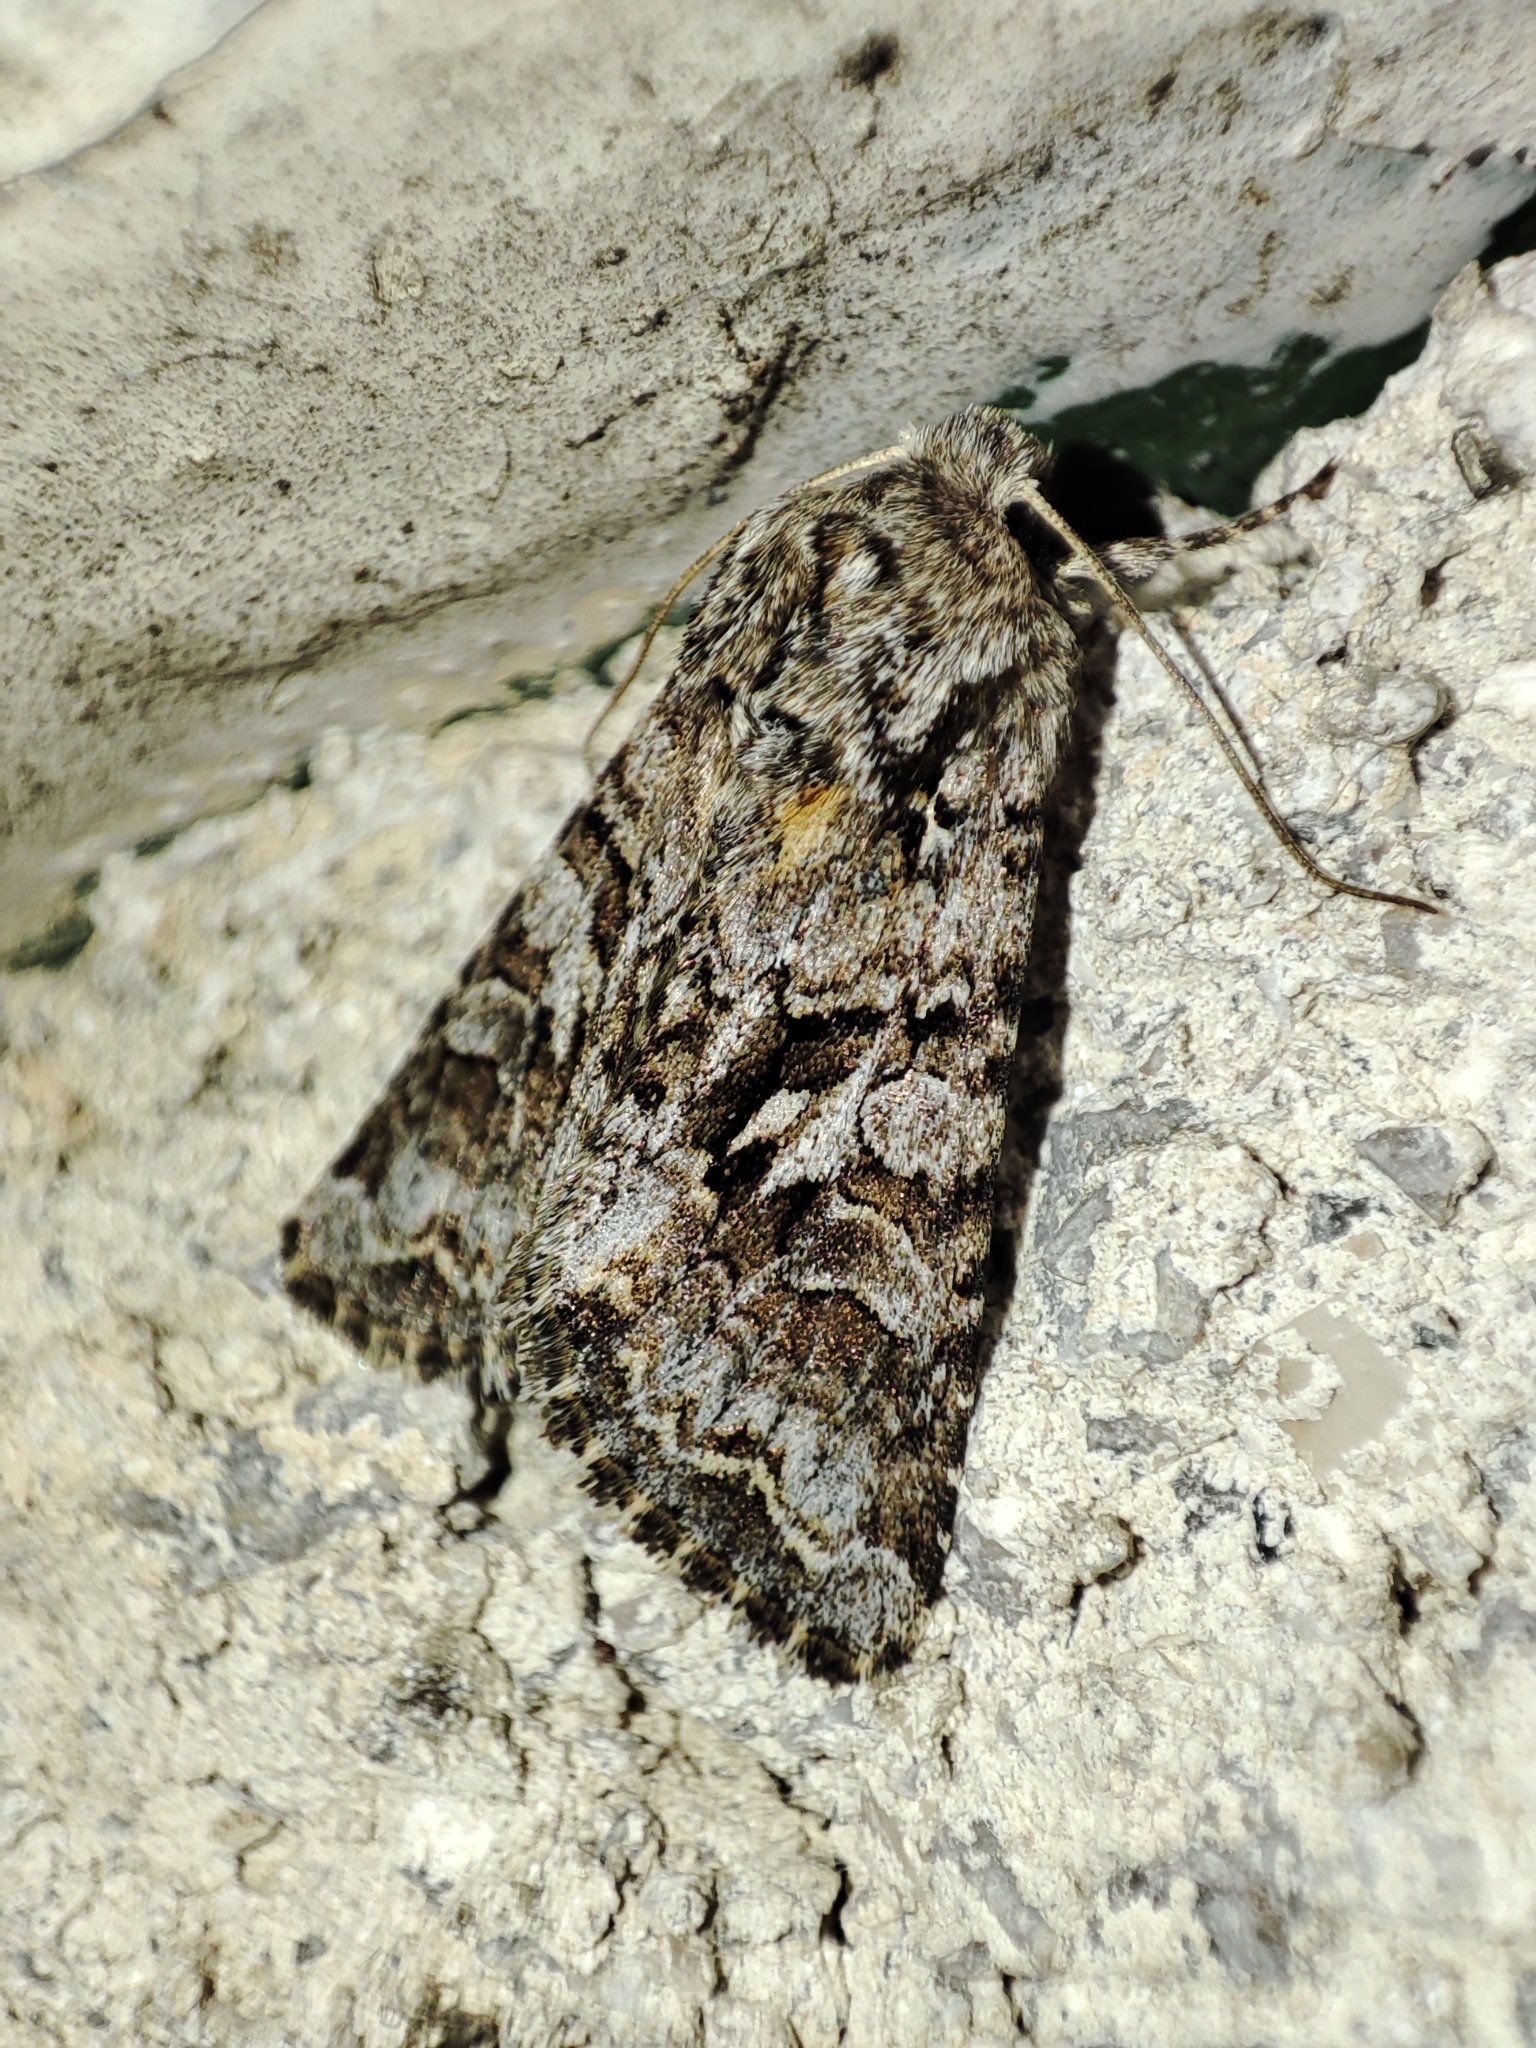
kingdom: Animalia
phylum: Arthropoda
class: Insecta
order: Lepidoptera
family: Noctuidae
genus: Hada
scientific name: Hada plebeja
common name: Shears
